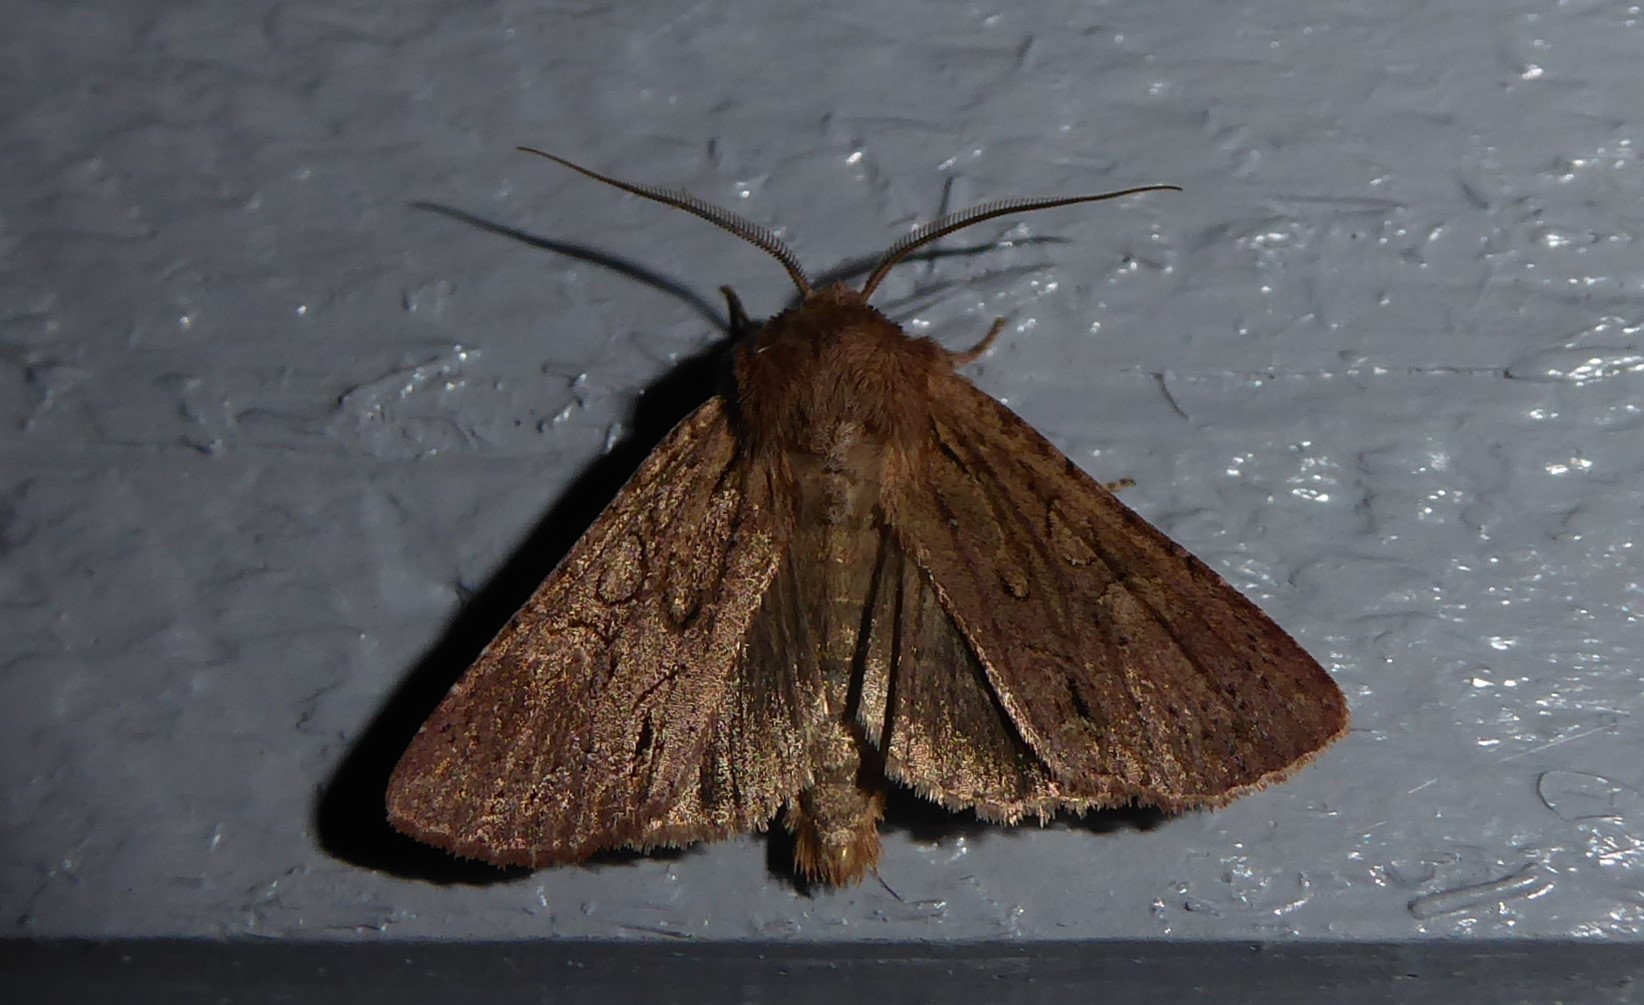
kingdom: Animalia
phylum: Arthropoda
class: Insecta
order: Lepidoptera
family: Noctuidae
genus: Ichneutica
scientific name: Ichneutica
